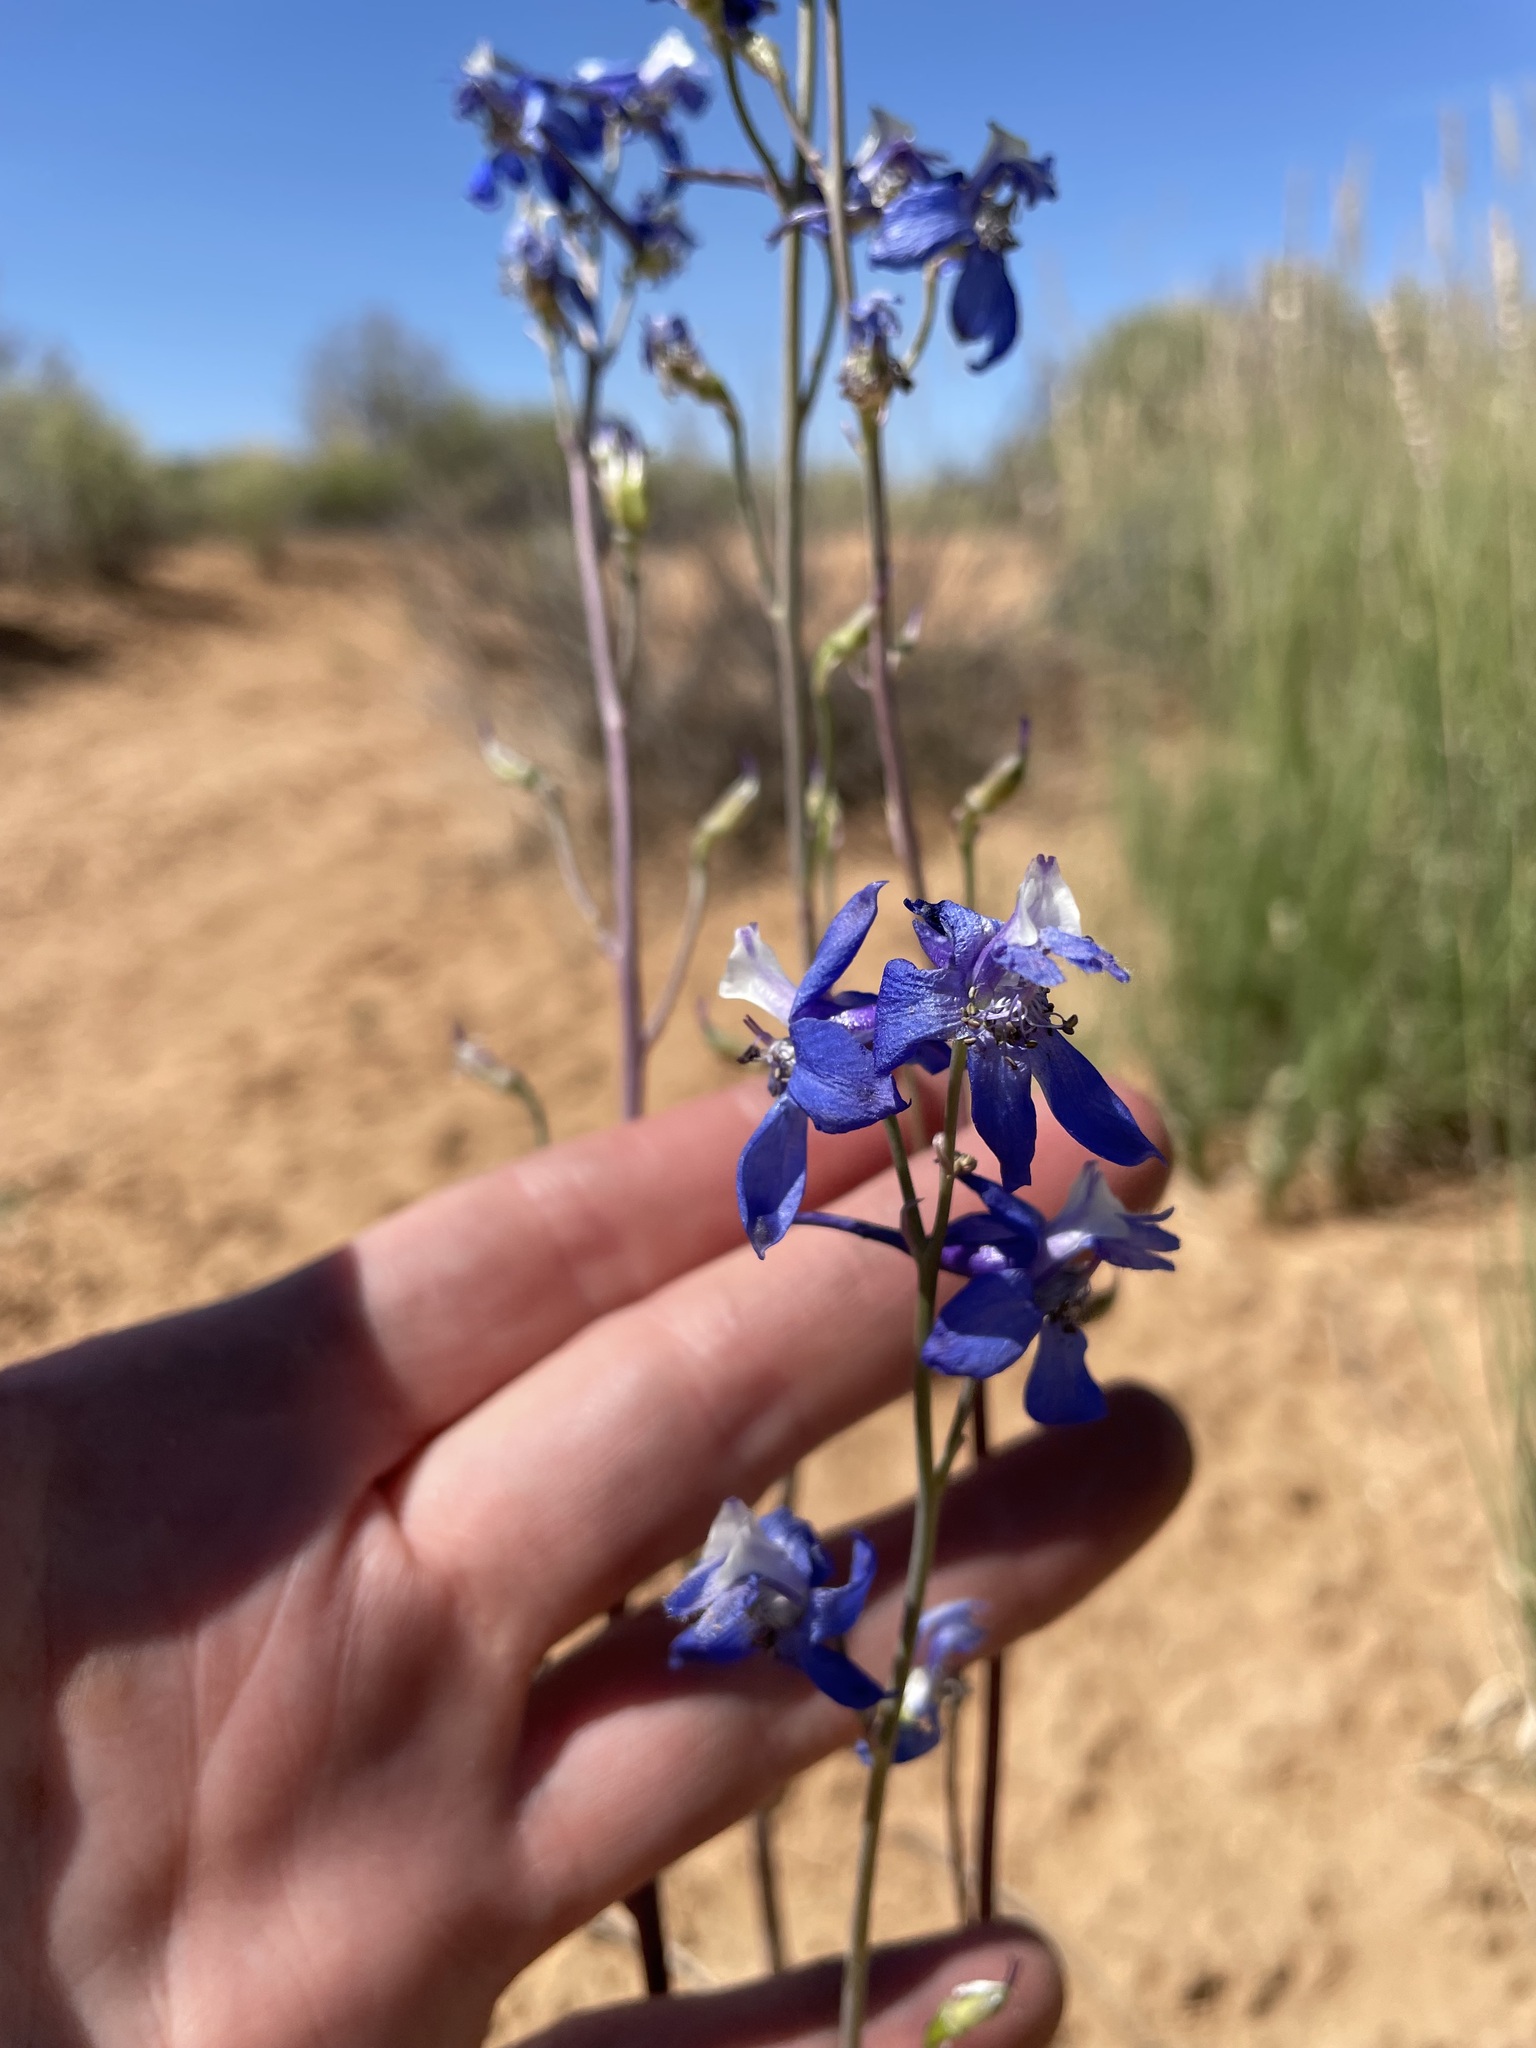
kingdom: Plantae
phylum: Tracheophyta
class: Magnoliopsida
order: Ranunculales
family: Ranunculaceae
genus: Delphinium
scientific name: Delphinium scaposum
